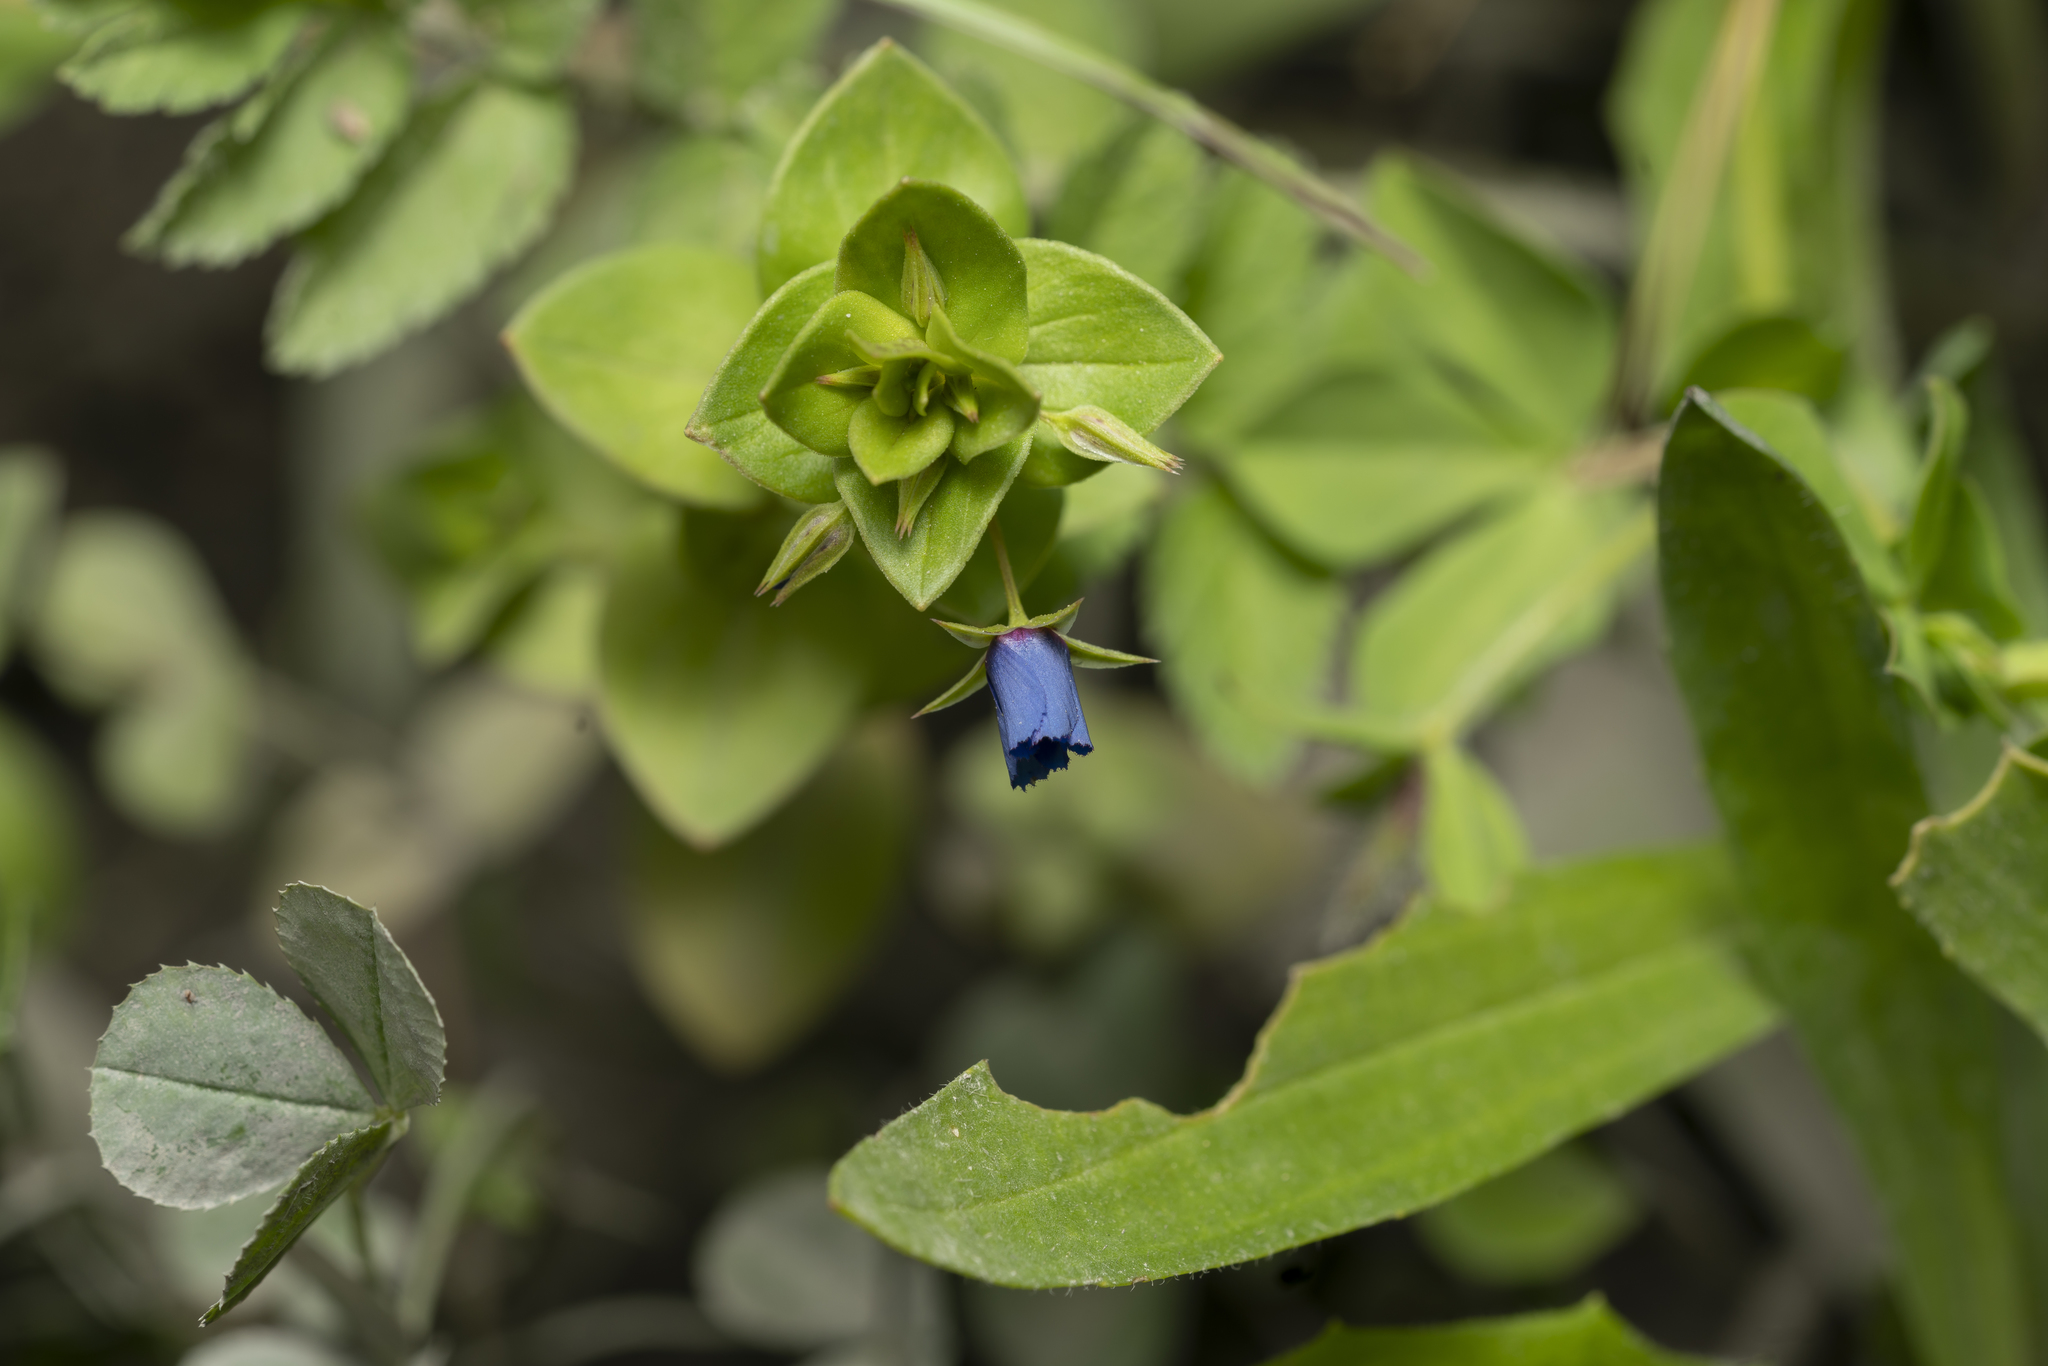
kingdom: Plantae
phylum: Tracheophyta
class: Magnoliopsida
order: Ericales
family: Primulaceae
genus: Lysimachia
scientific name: Lysimachia loeflingii
